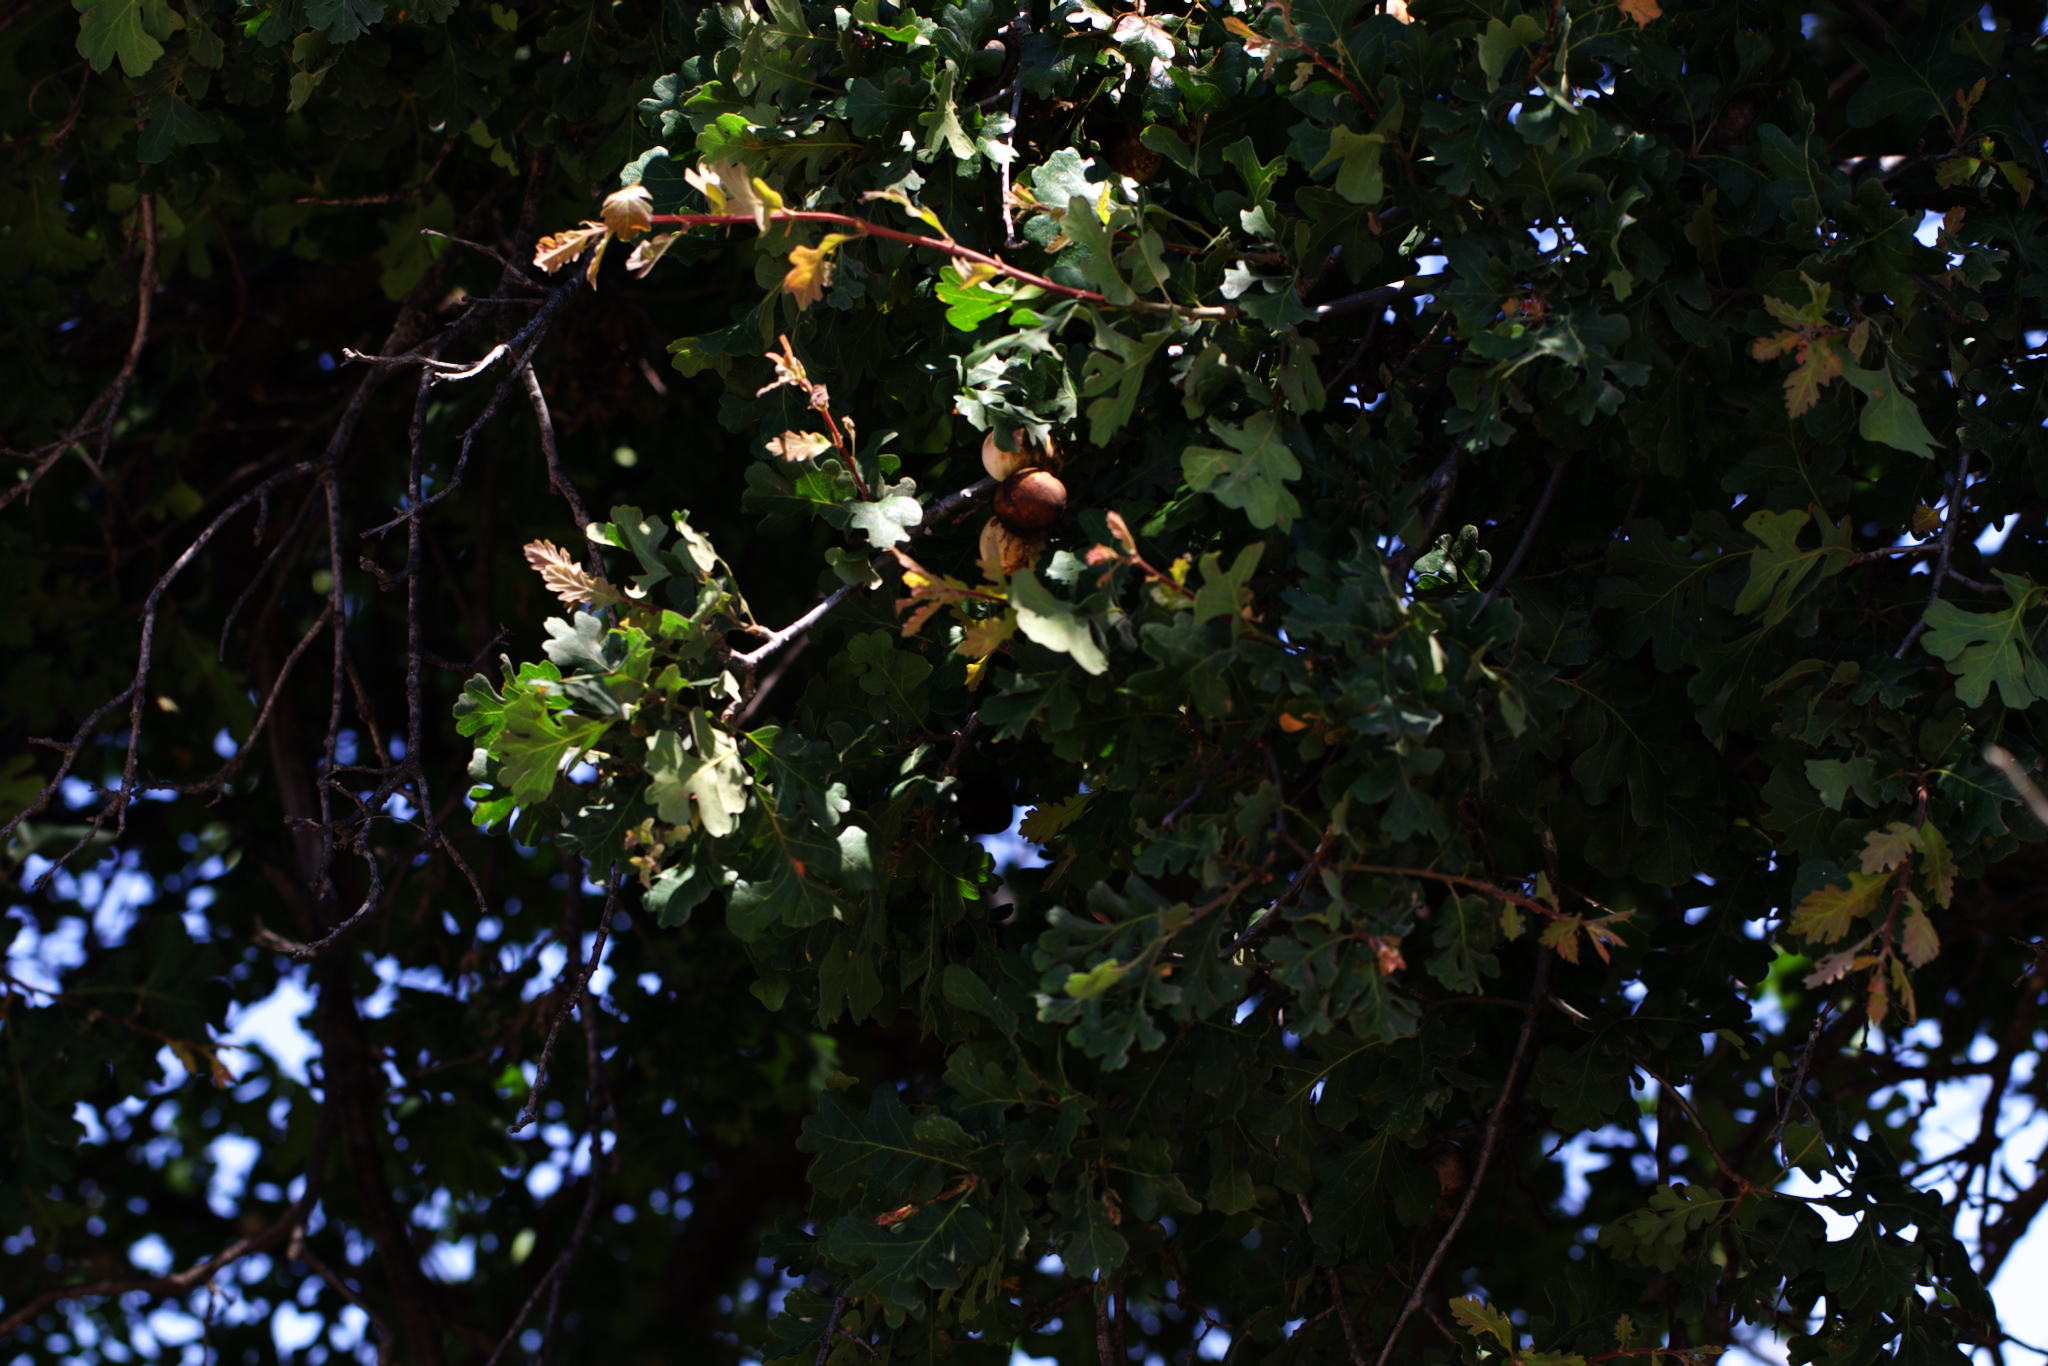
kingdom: Plantae
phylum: Tracheophyta
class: Magnoliopsida
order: Fagales
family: Fagaceae
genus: Quercus
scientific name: Quercus lobata
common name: Valley oak
